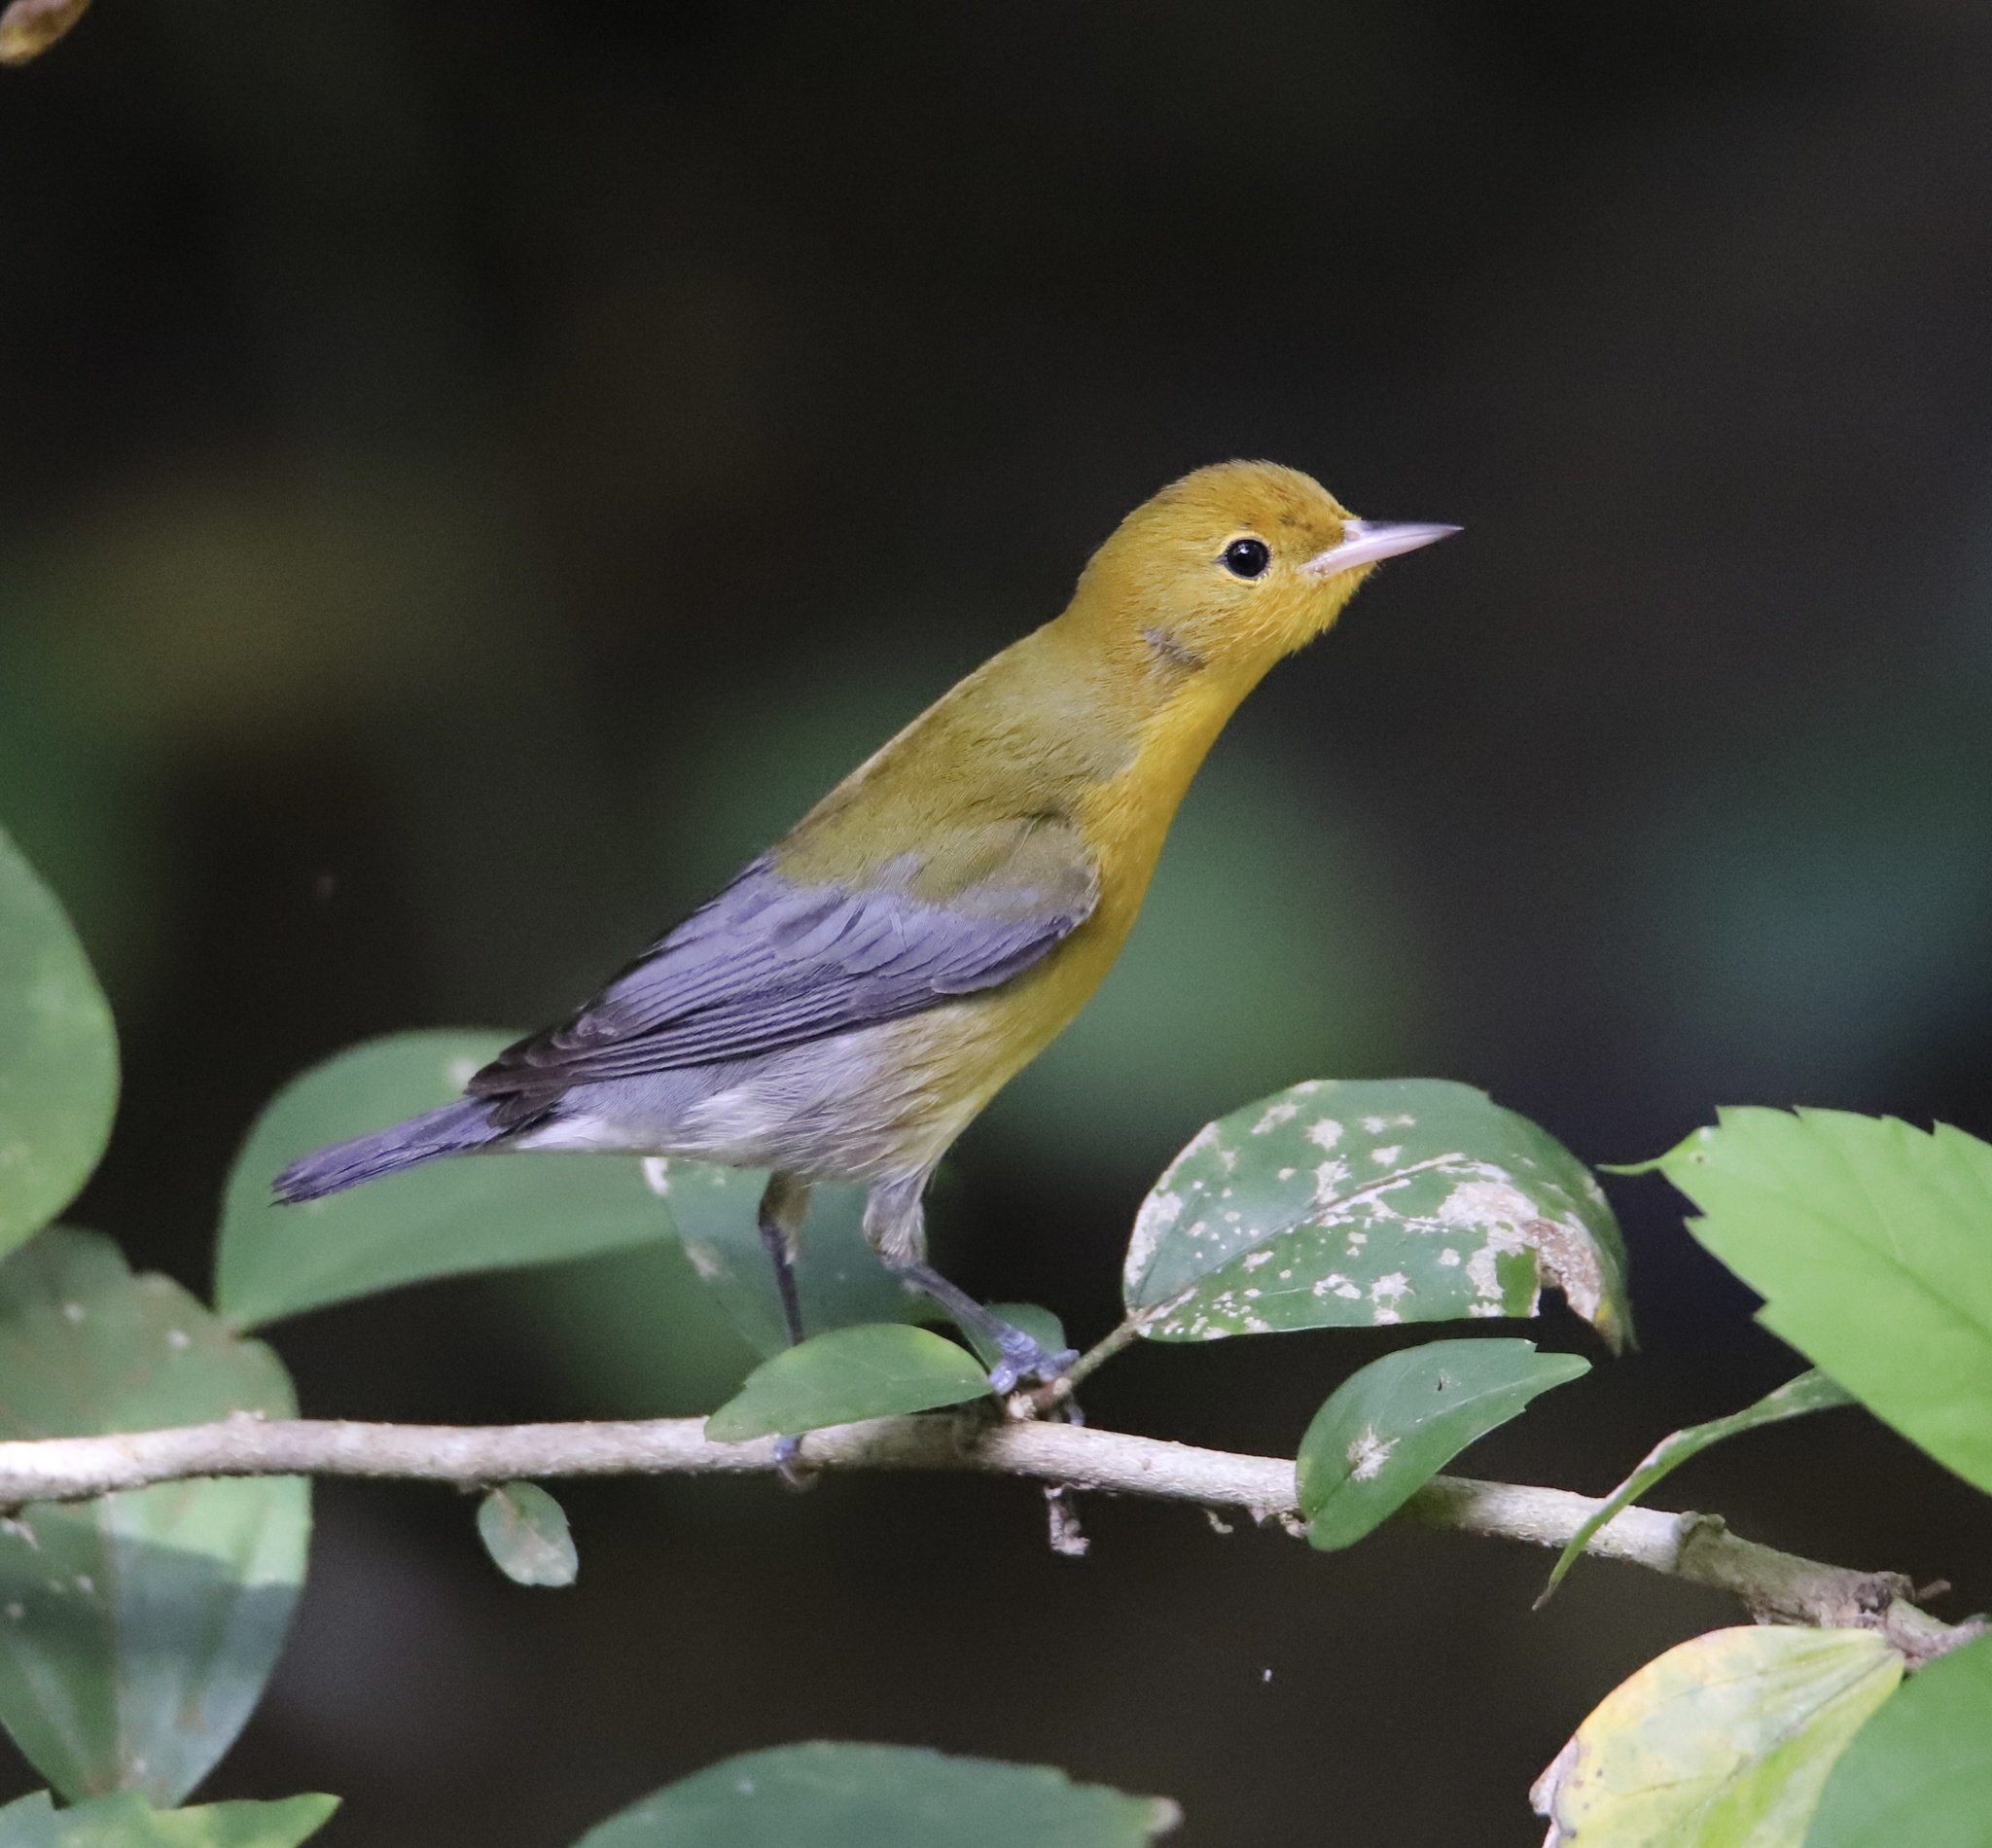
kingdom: Animalia
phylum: Chordata
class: Aves
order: Passeriformes
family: Parulidae
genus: Protonotaria
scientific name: Protonotaria citrea
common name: Prothonotary warbler
